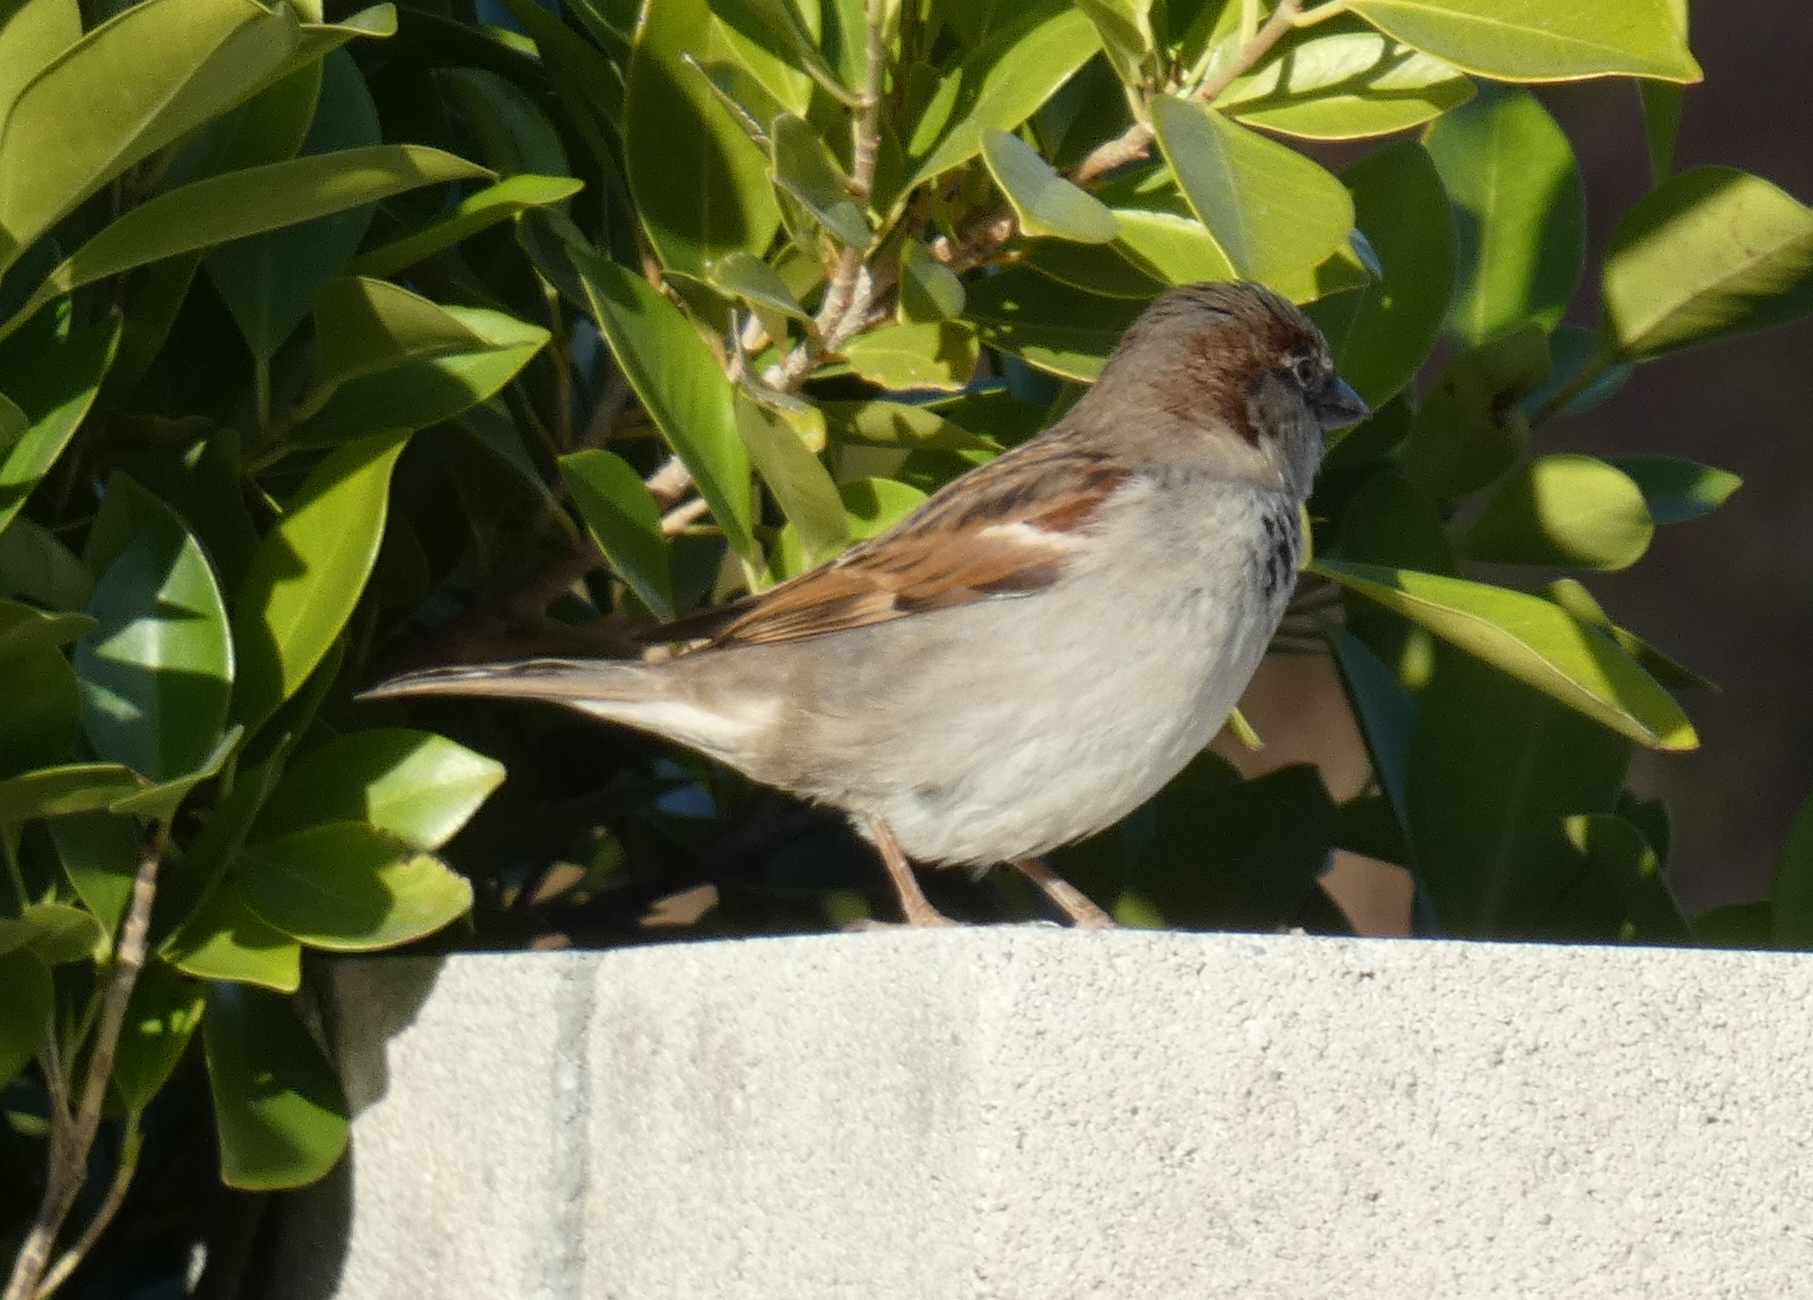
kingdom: Animalia
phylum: Chordata
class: Aves
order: Passeriformes
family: Passeridae
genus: Passer
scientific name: Passer domesticus
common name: House sparrow
